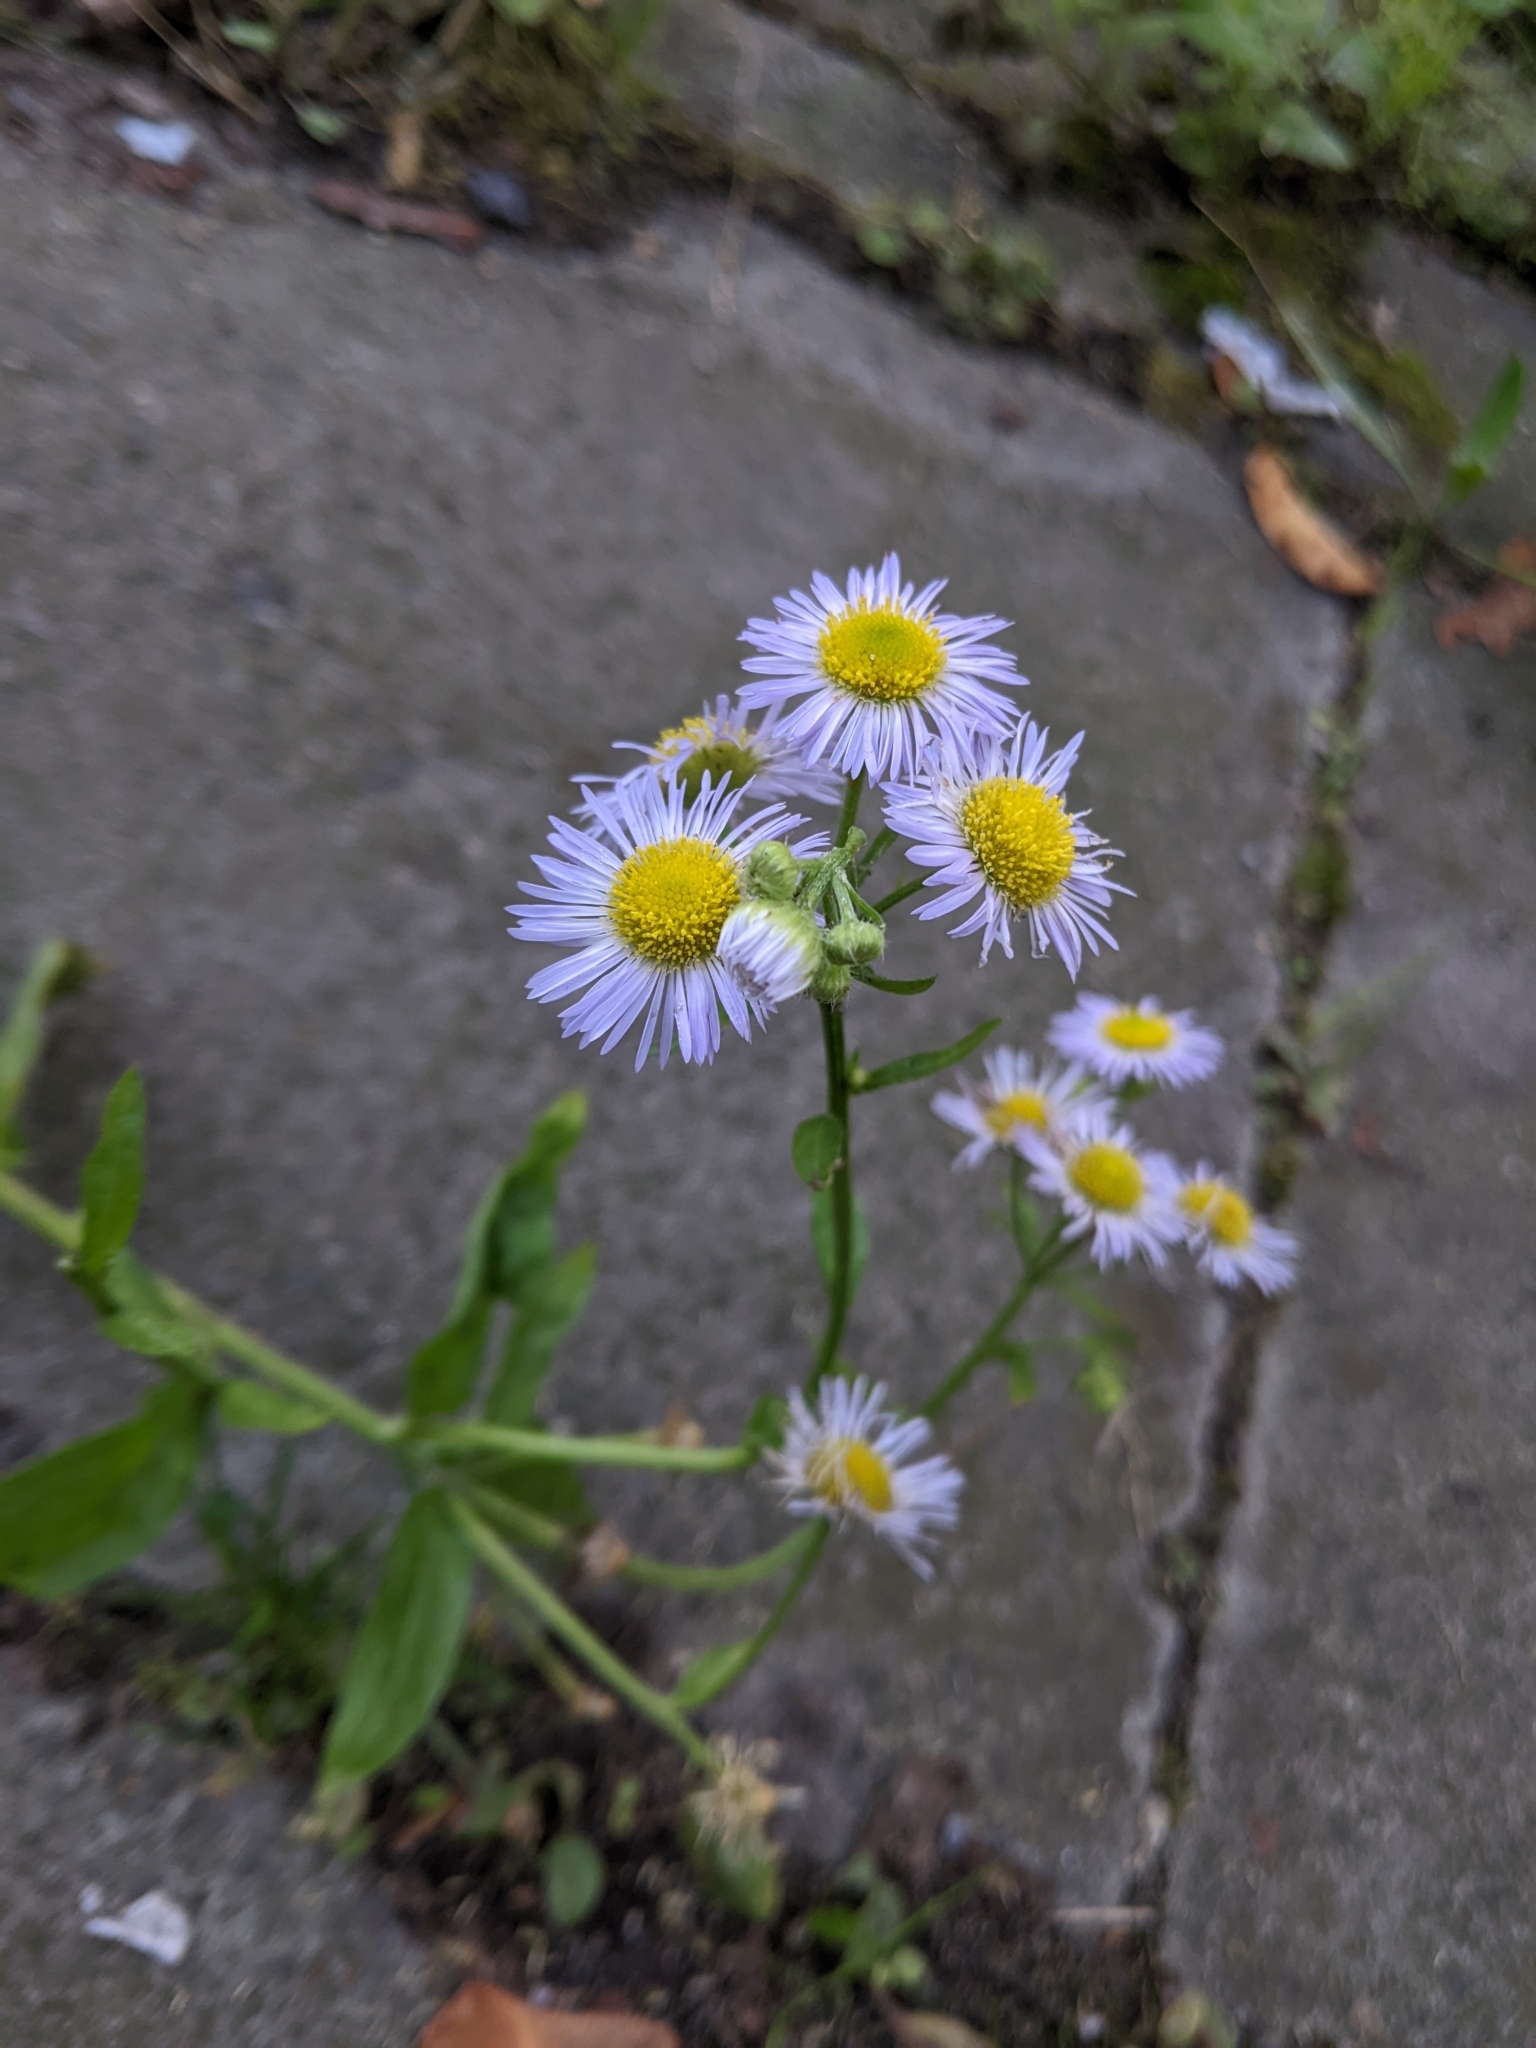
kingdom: Plantae
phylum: Tracheophyta
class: Magnoliopsida
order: Asterales
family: Asteraceae
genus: Erigeron
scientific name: Erigeron annuus
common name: Tall fleabane
